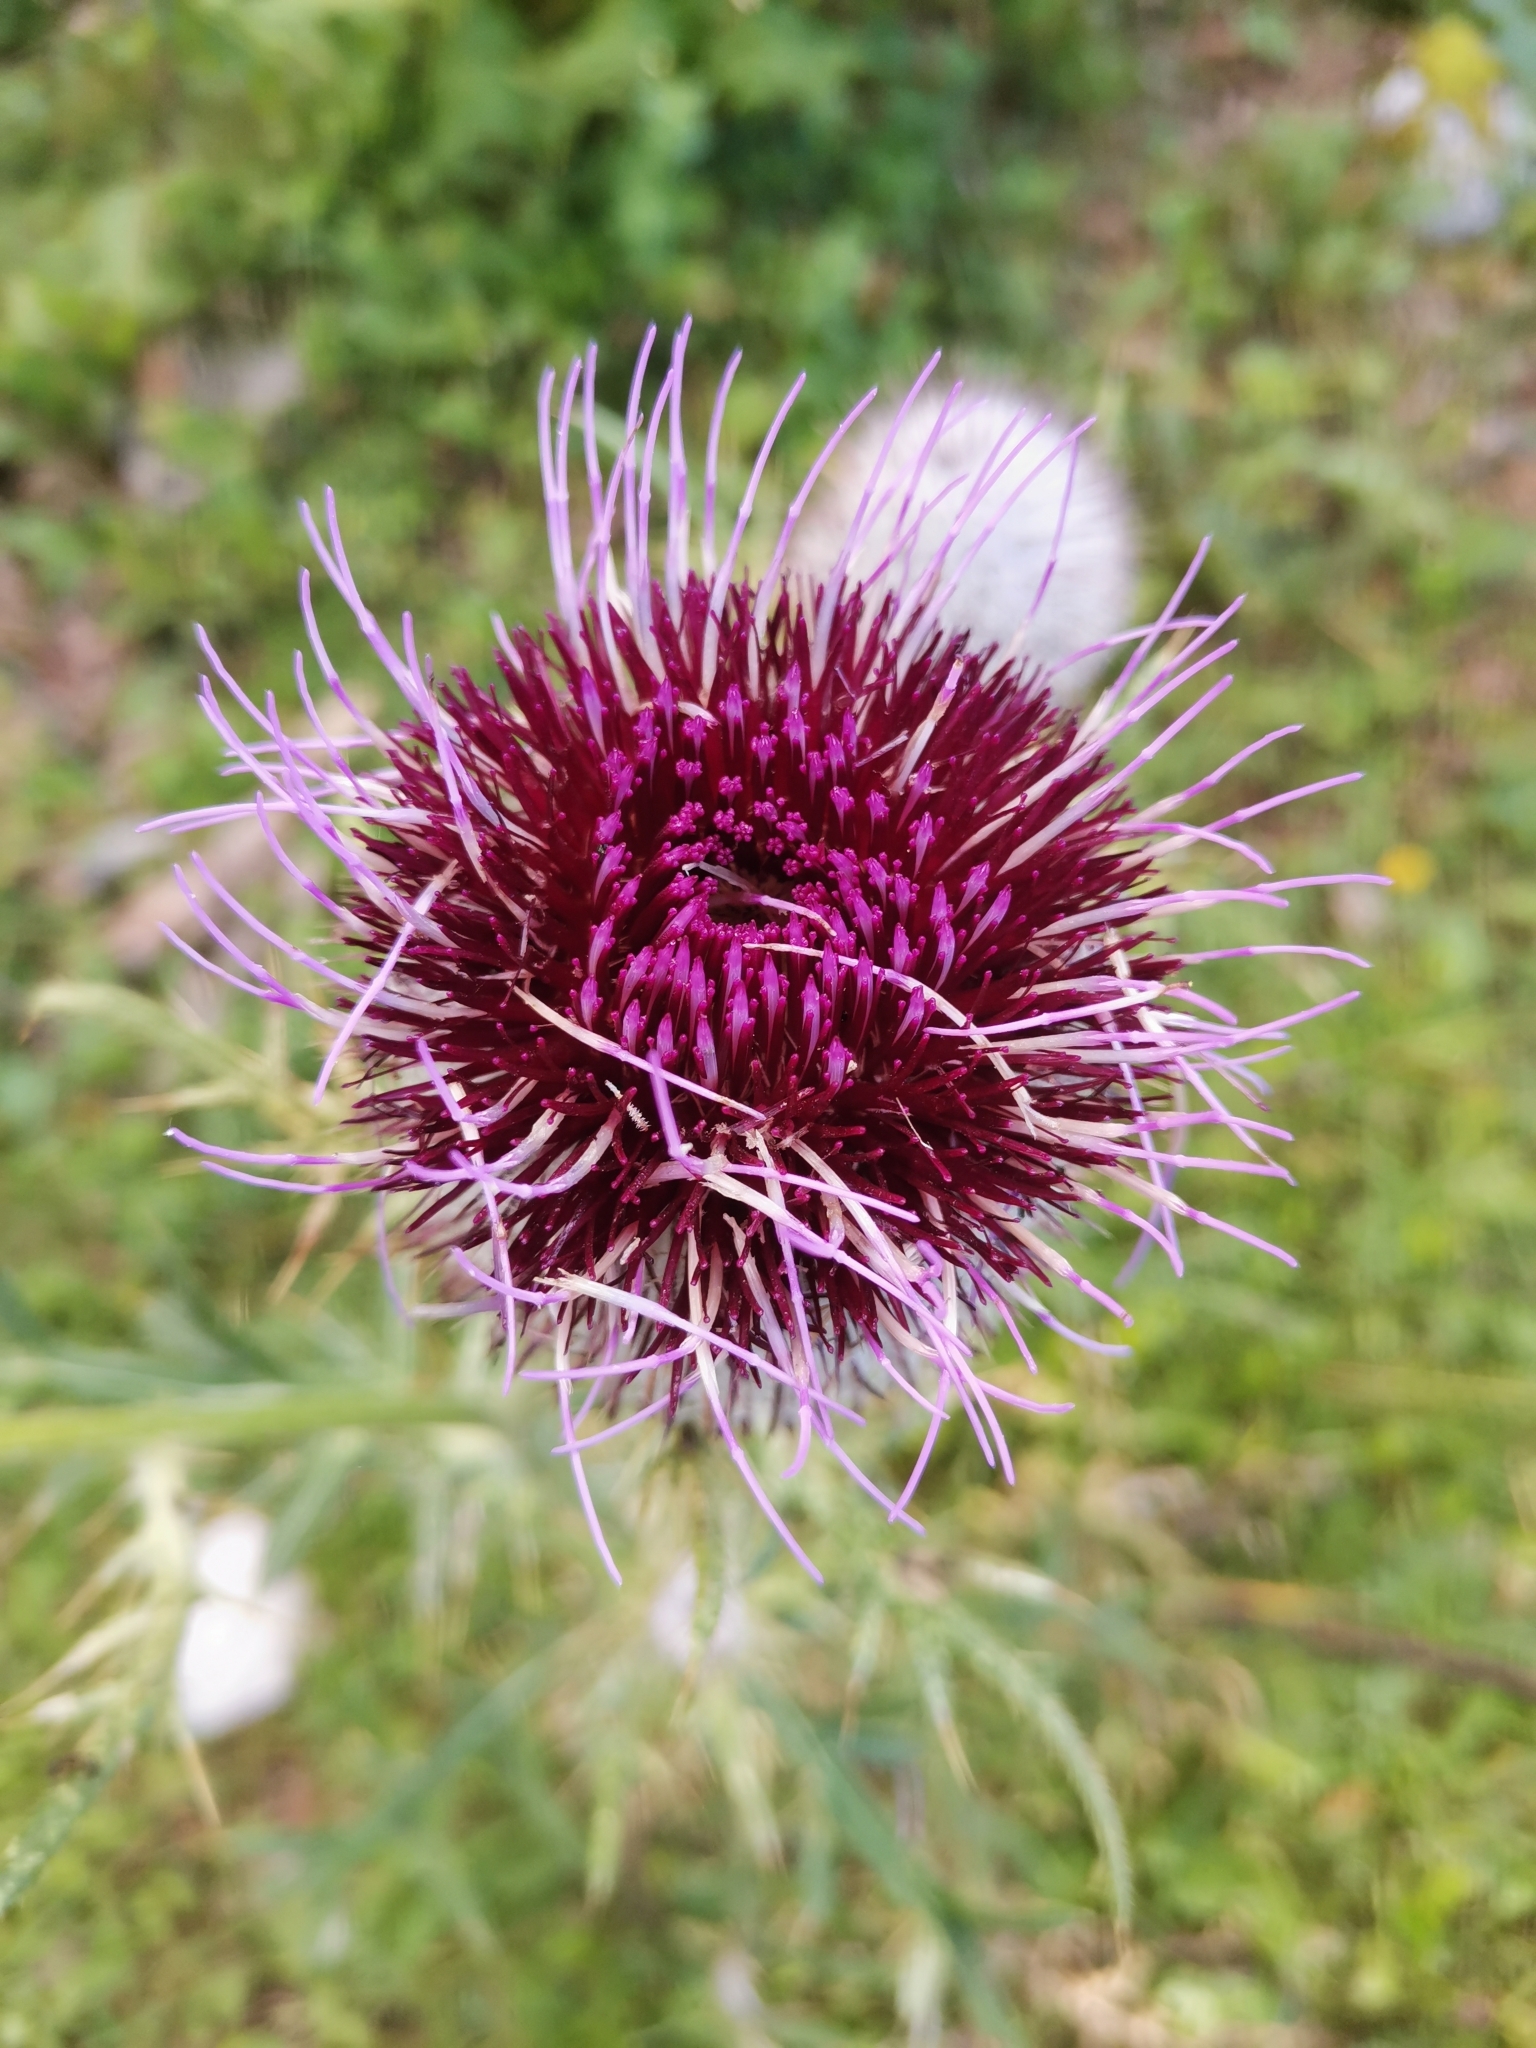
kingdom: Plantae
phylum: Tracheophyta
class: Magnoliopsida
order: Asterales
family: Asteraceae
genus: Lophiolepis
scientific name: Lophiolepis eriophora
